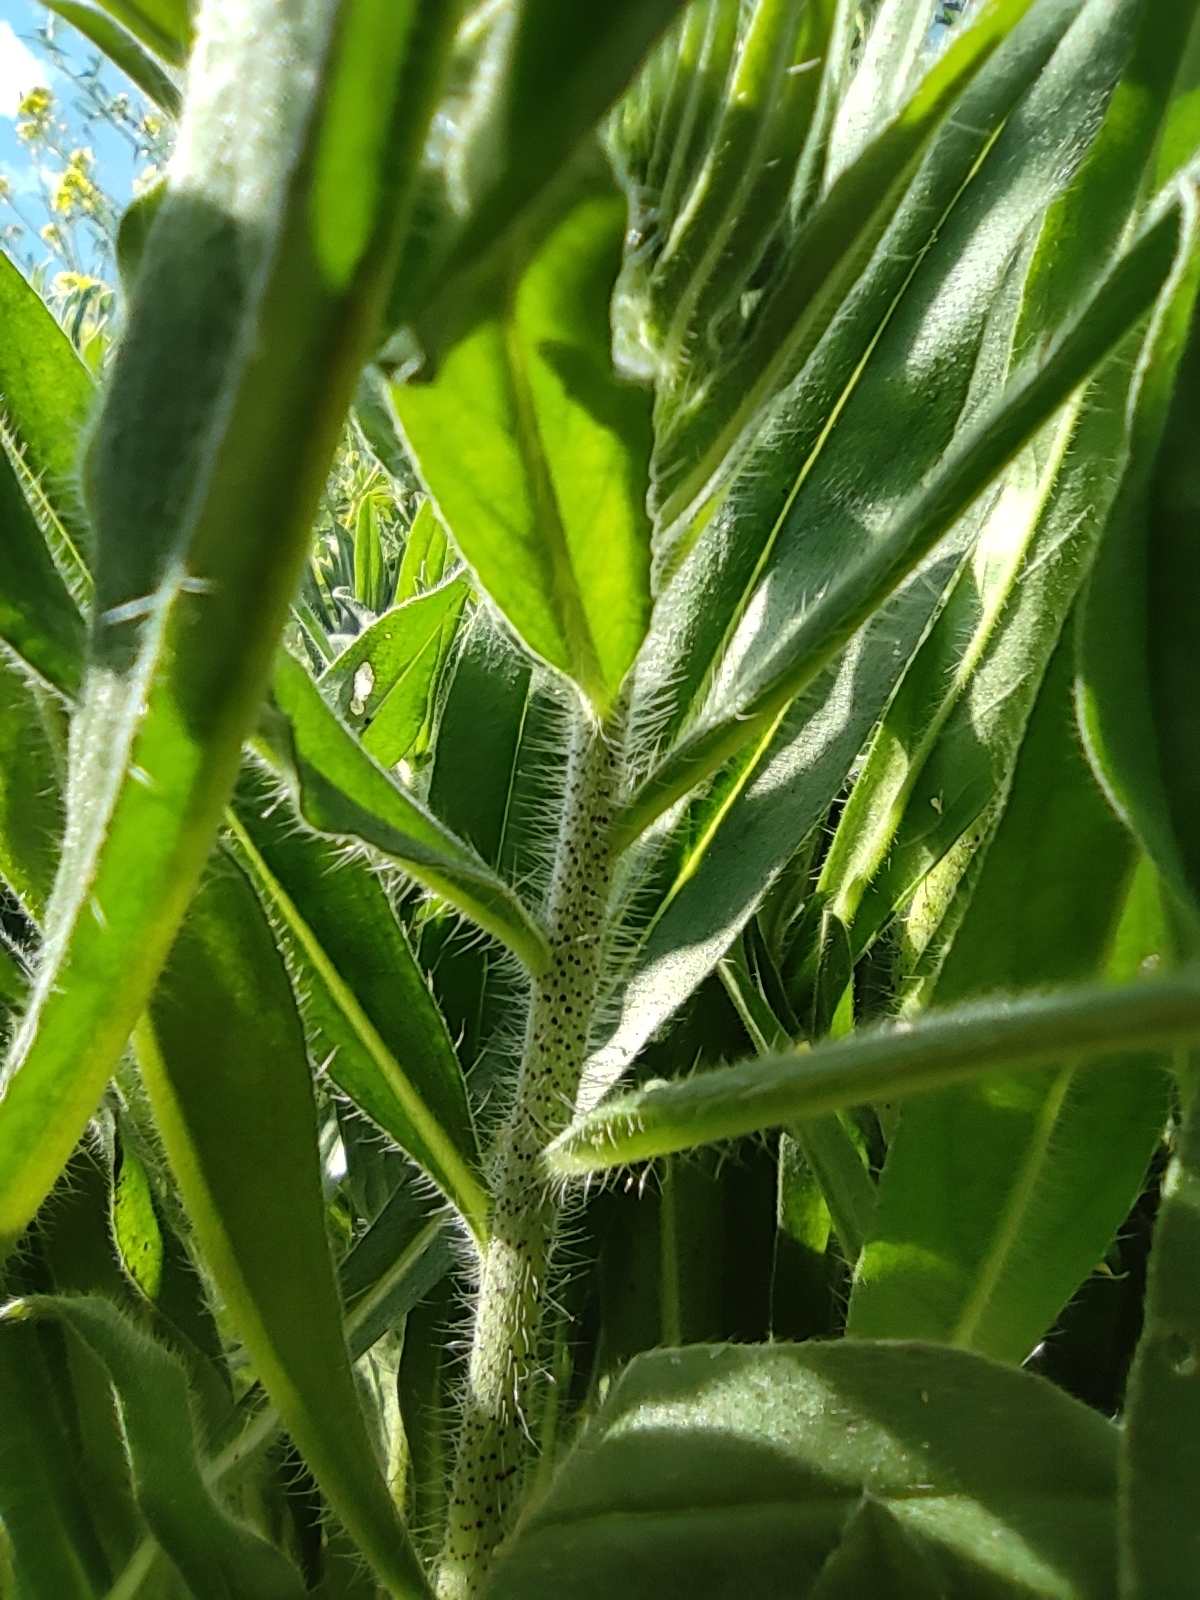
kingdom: Plantae
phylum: Tracheophyta
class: Magnoliopsida
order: Boraginales
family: Boraginaceae
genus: Echium
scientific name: Echium vulgare
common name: Common viper's bugloss
